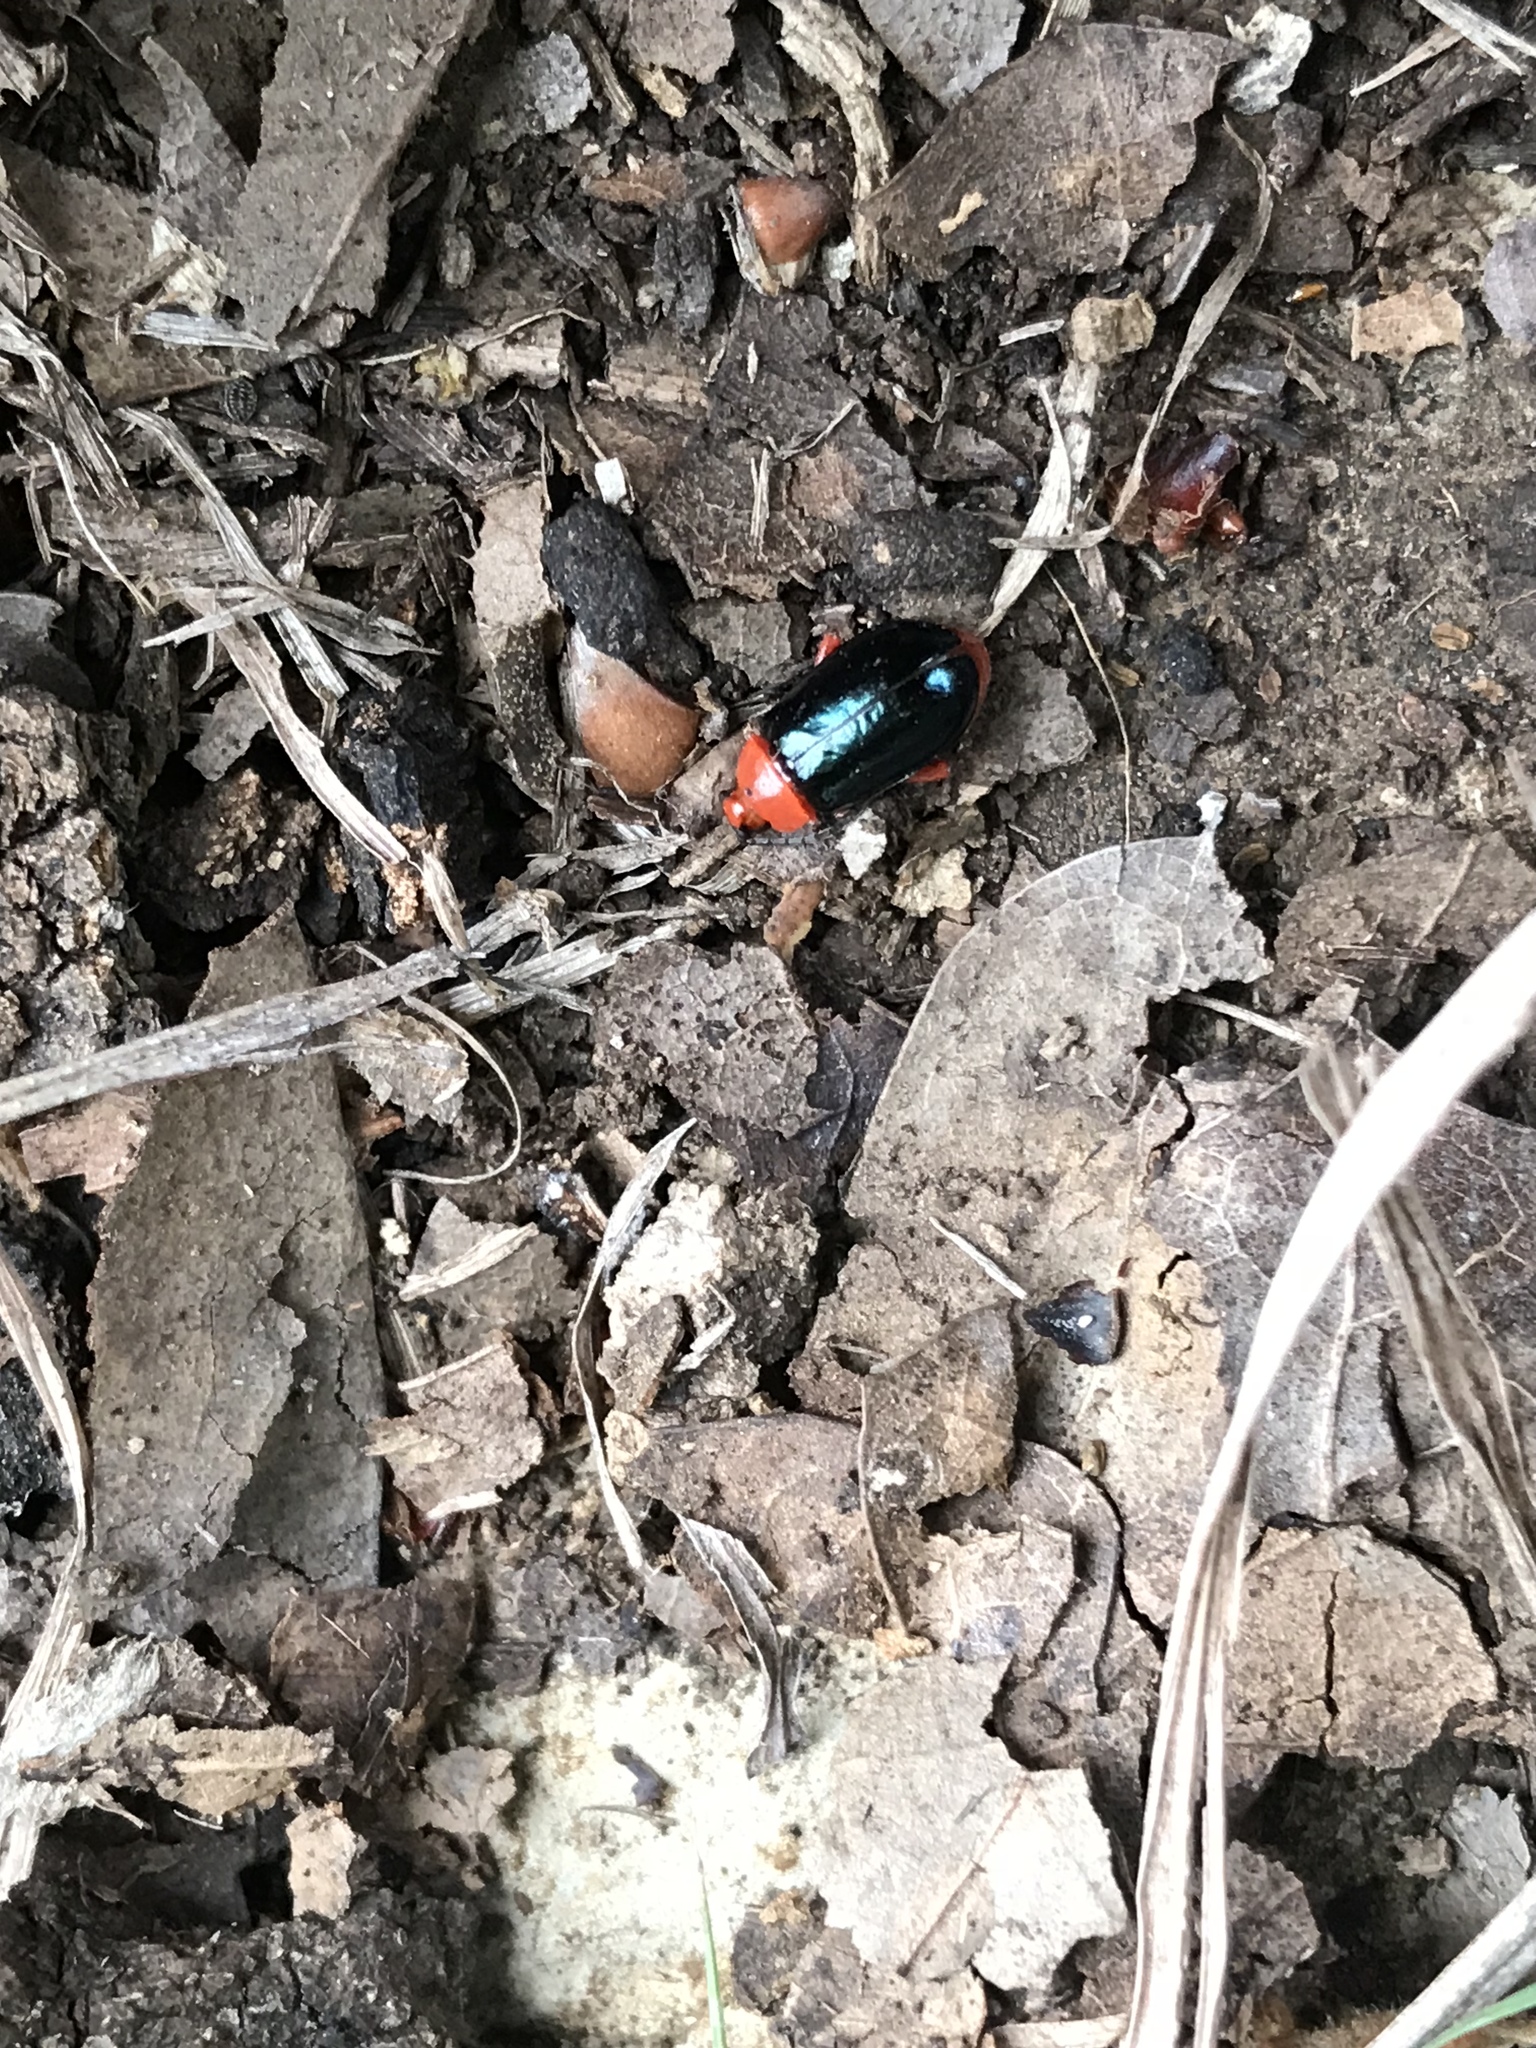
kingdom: Animalia
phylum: Arthropoda
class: Insecta
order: Coleoptera
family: Chrysomelidae
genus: Asphaera
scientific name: Asphaera lustrans
